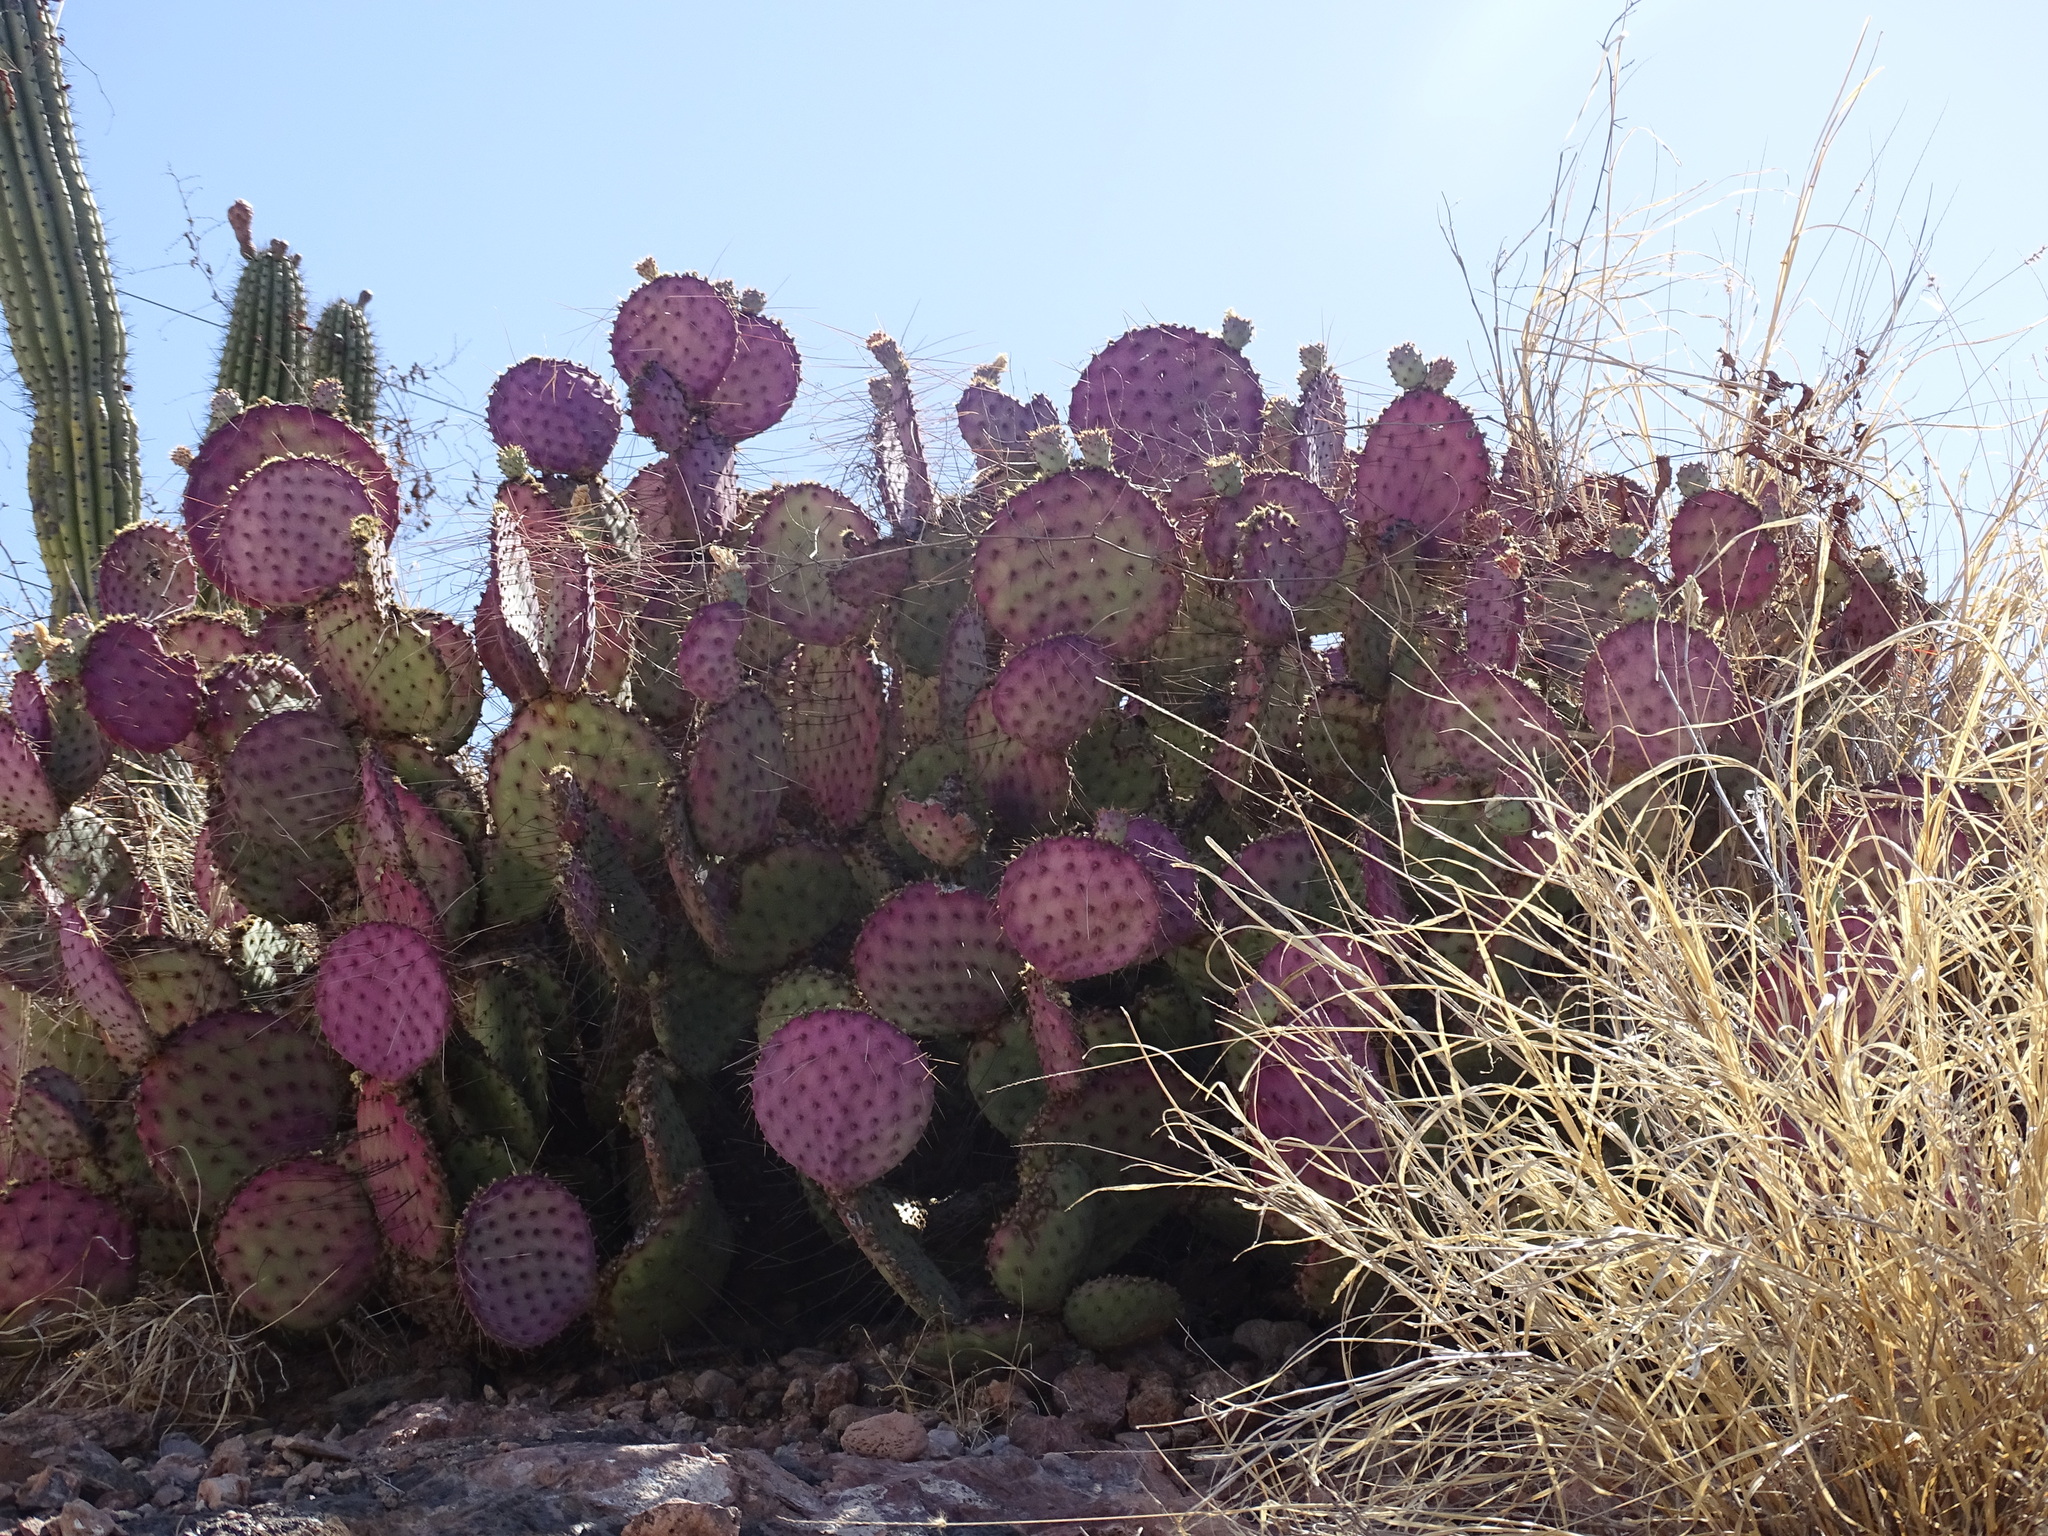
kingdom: Plantae
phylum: Tracheophyta
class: Magnoliopsida
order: Caryophyllales
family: Cactaceae
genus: Opuntia
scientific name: Opuntia gosseliniana
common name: Violet prickly-pear
